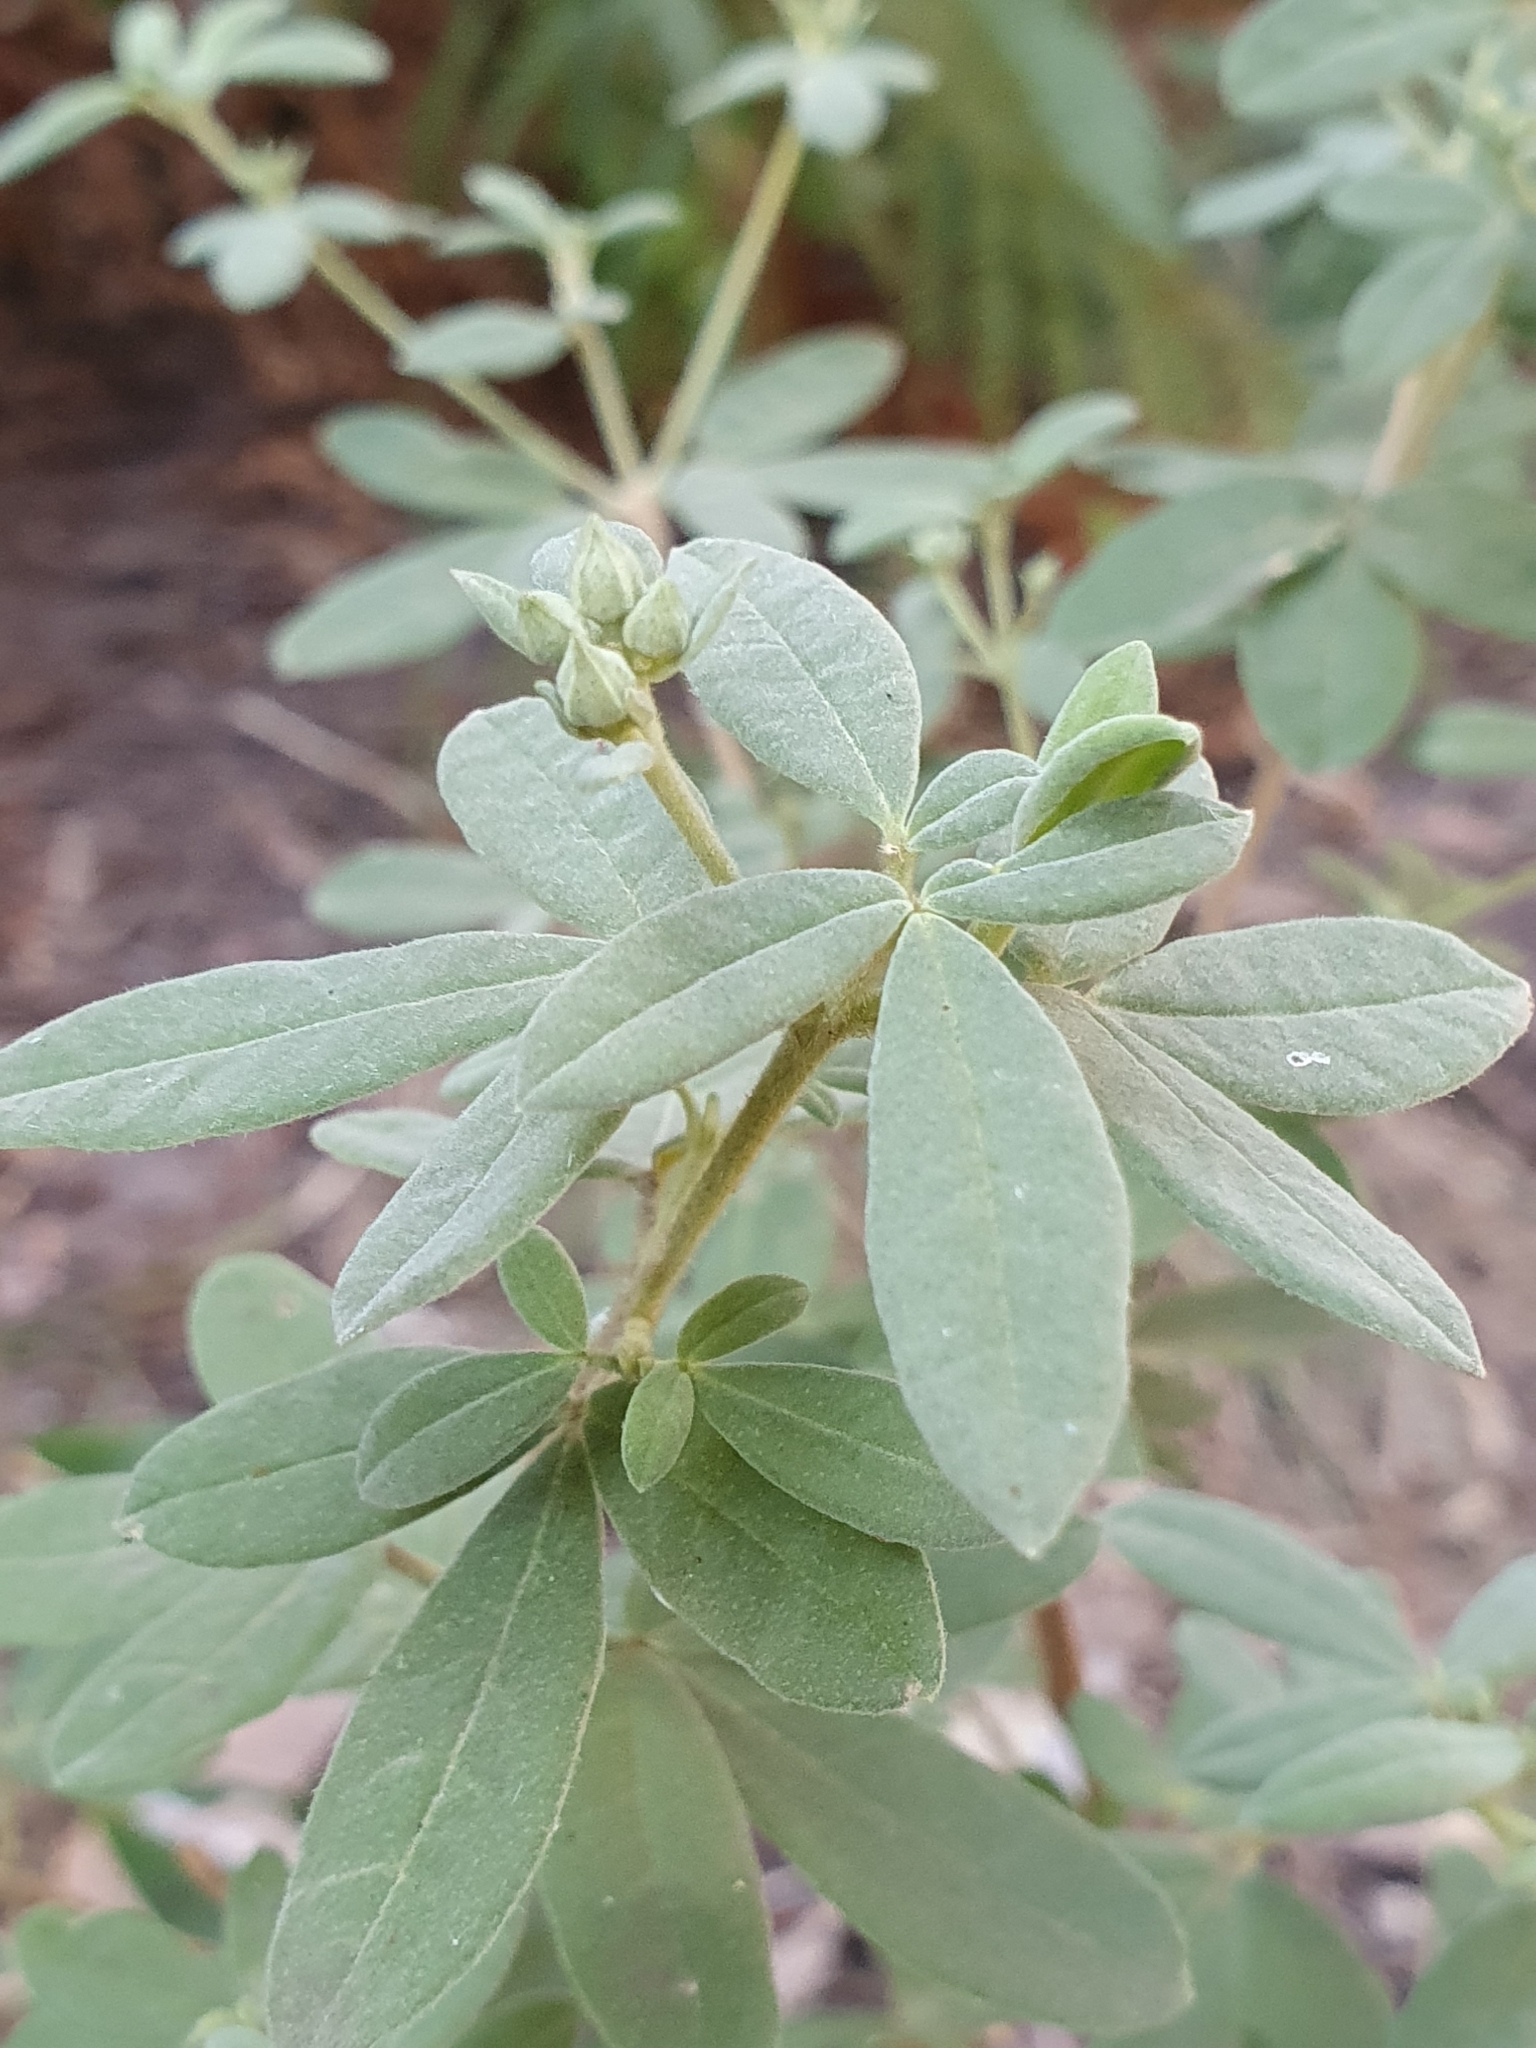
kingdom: Plantae
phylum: Tracheophyta
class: Magnoliopsida
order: Sapindales
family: Rutaceae
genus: Zieria
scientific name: Zieria cytisoides
